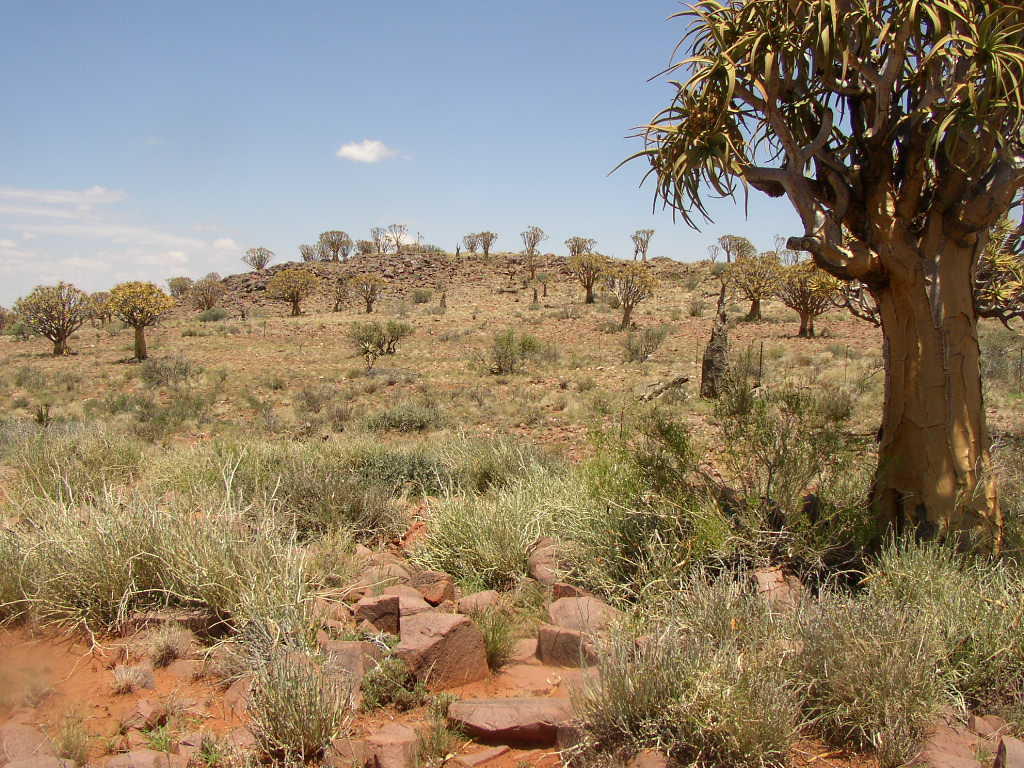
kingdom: Plantae
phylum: Tracheophyta
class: Liliopsida
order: Asparagales
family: Asphodelaceae
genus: Aloidendron
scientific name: Aloidendron dichotomum
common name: Quiver tree
